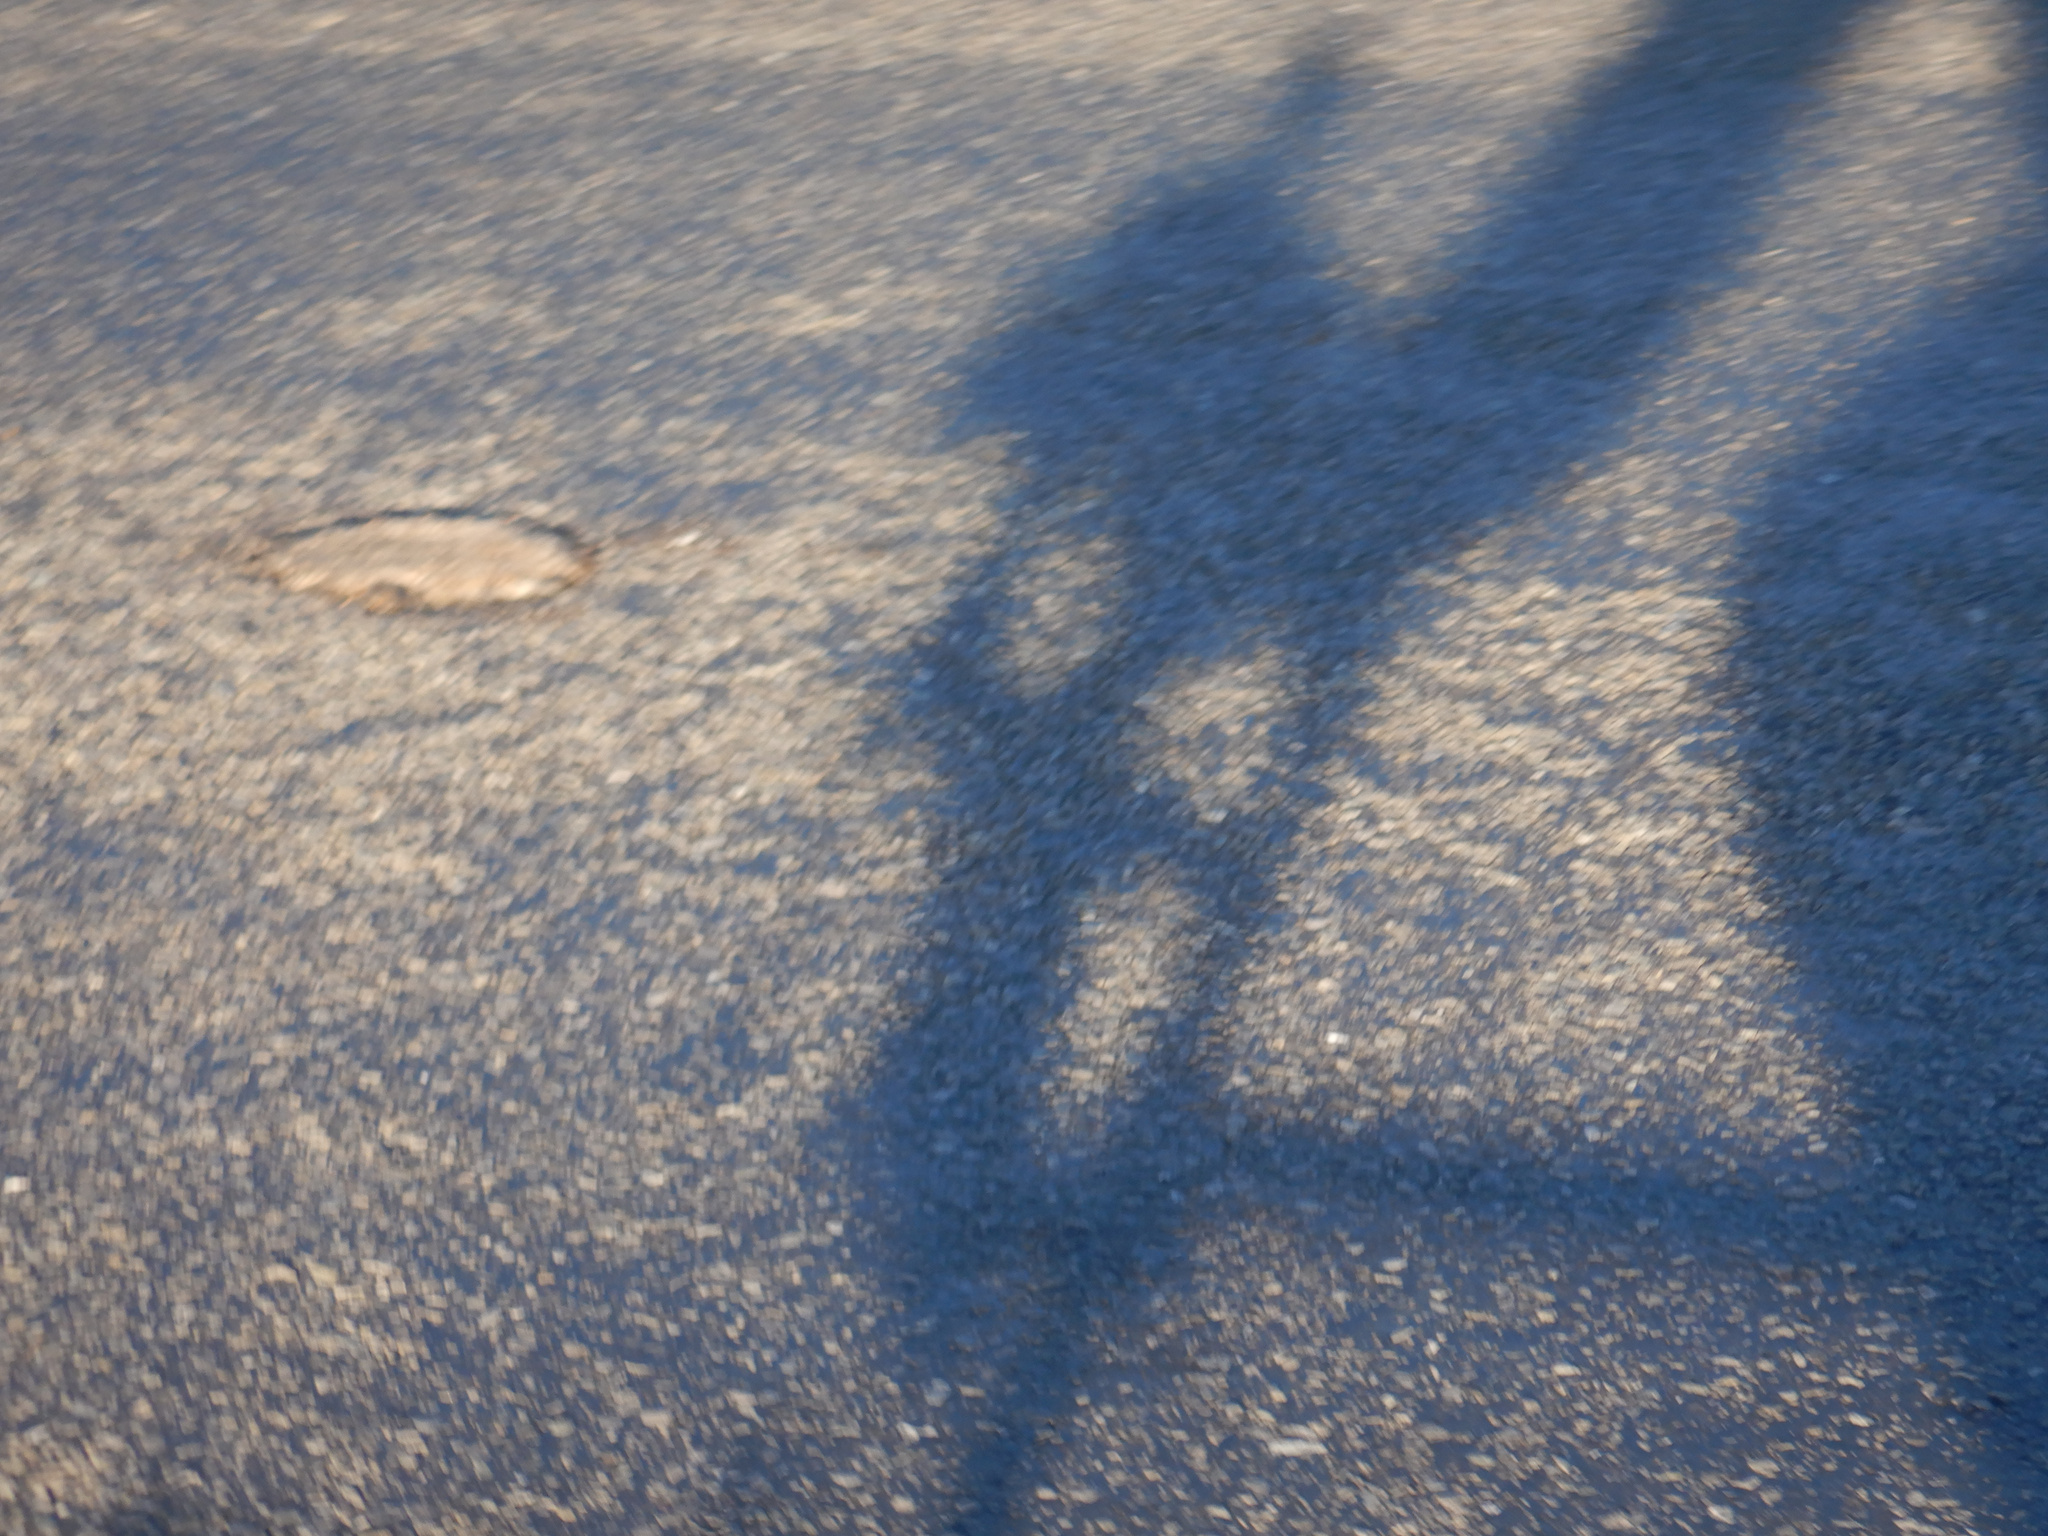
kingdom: Animalia
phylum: Chordata
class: Mammalia
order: Erinaceomorpha
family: Erinaceidae
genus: Erinaceus
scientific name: Erinaceus europaeus
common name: West european hedgehog
